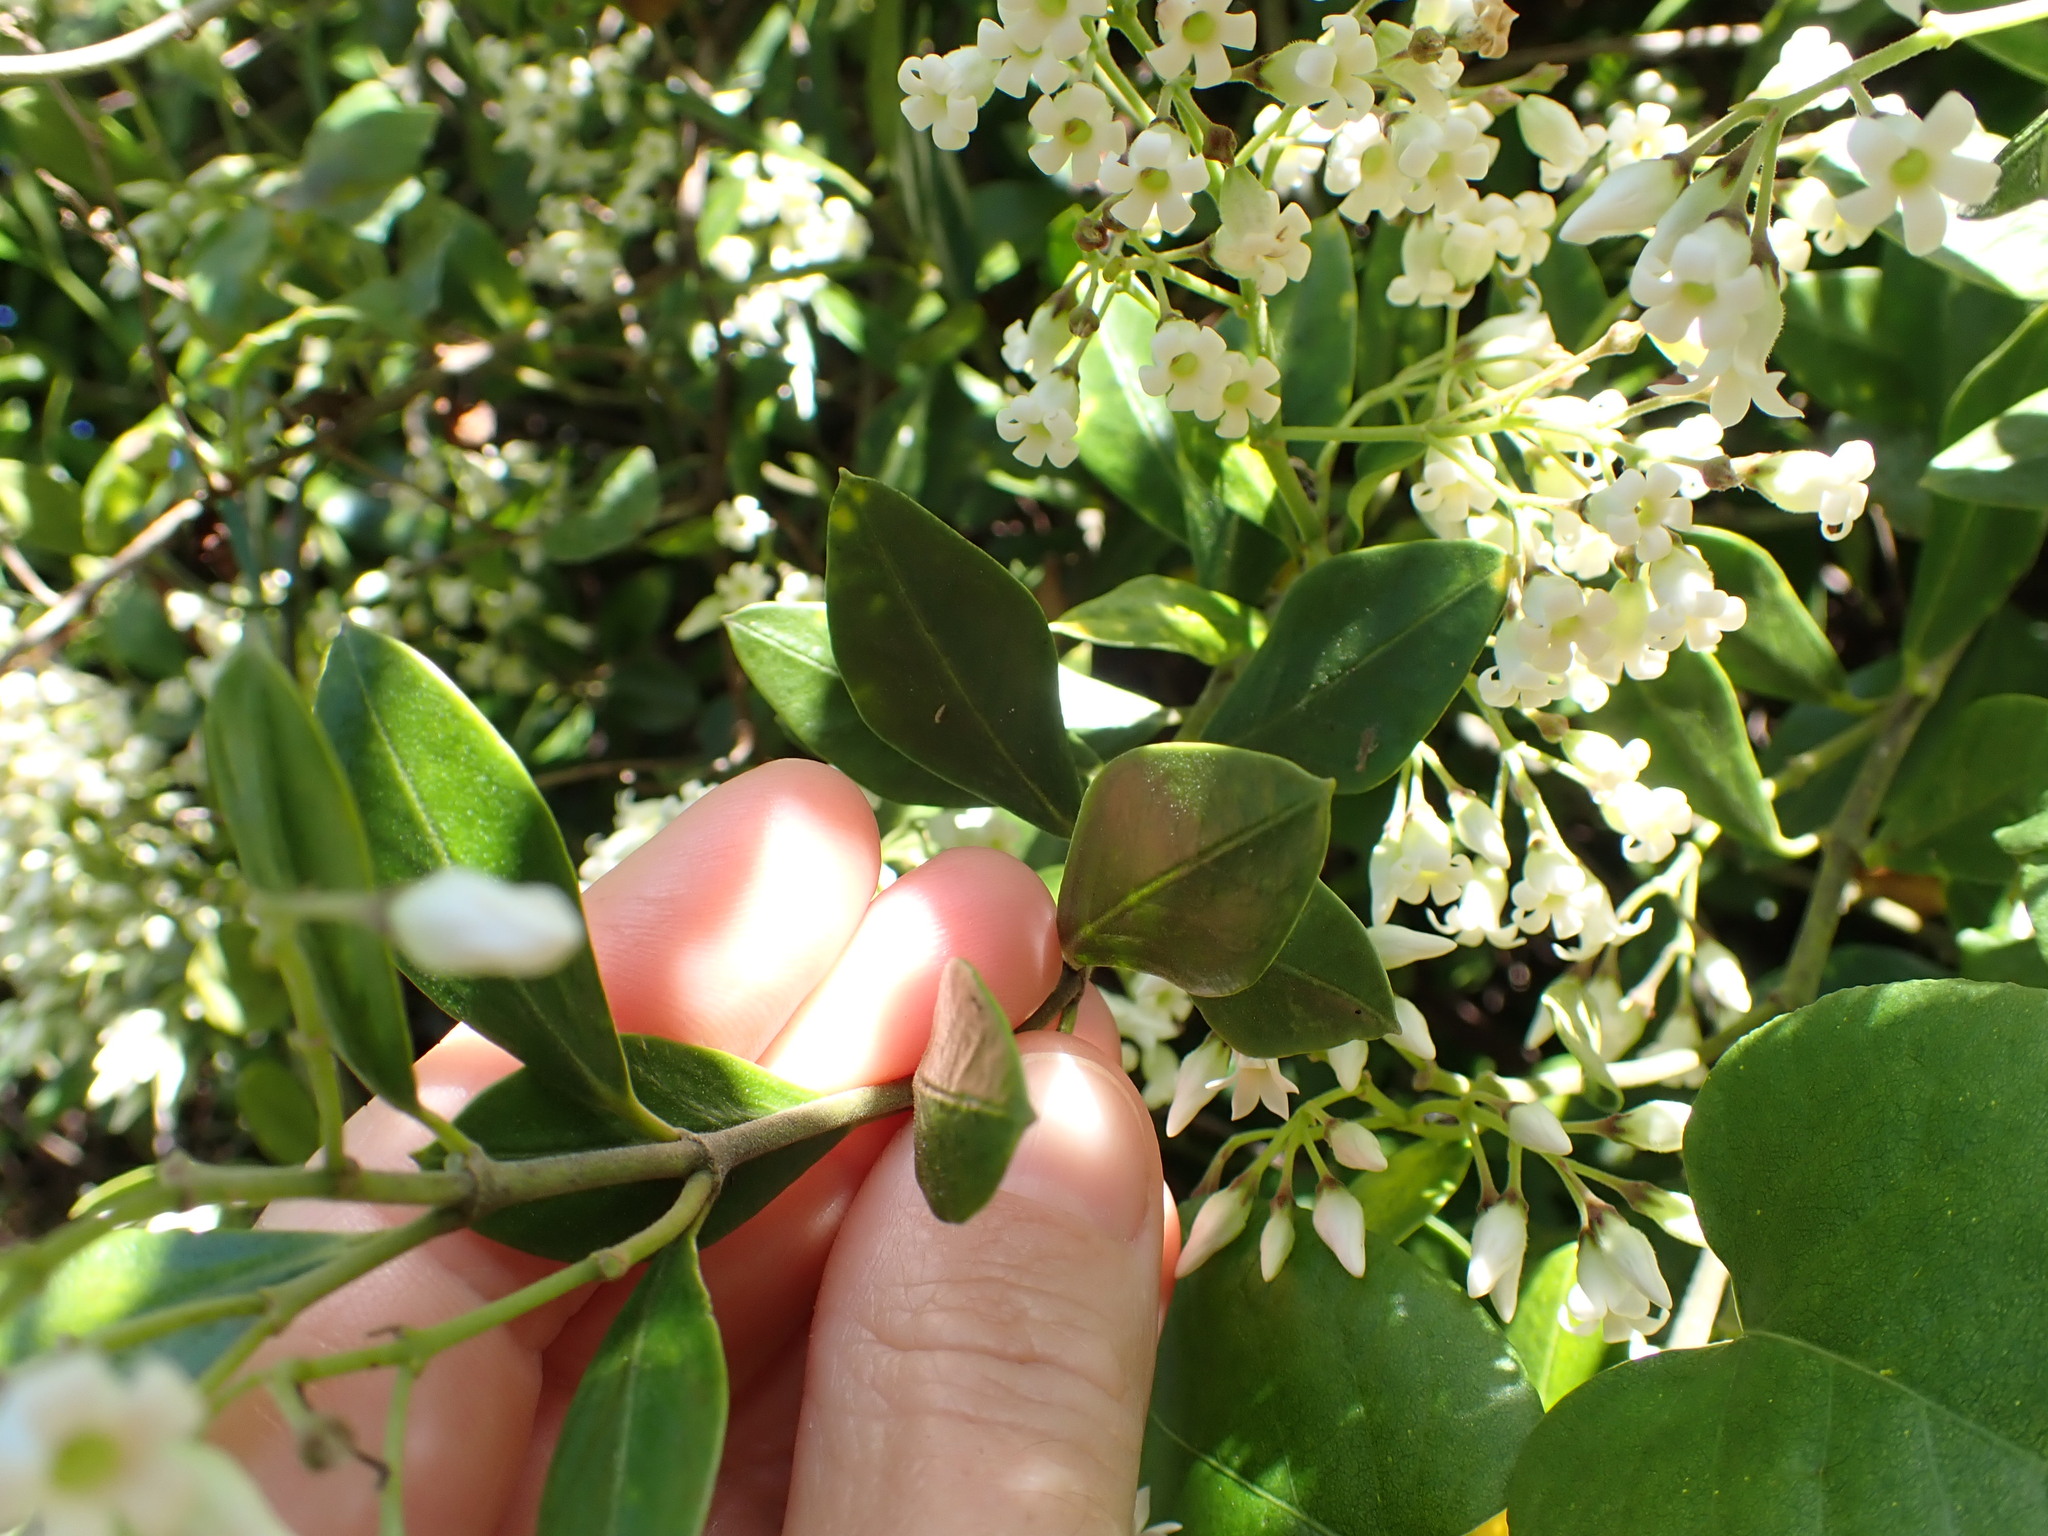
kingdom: Plantae
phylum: Tracheophyta
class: Magnoliopsida
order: Gentianales
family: Apocynaceae
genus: Parsonsia
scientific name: Parsonsia heterophylla
